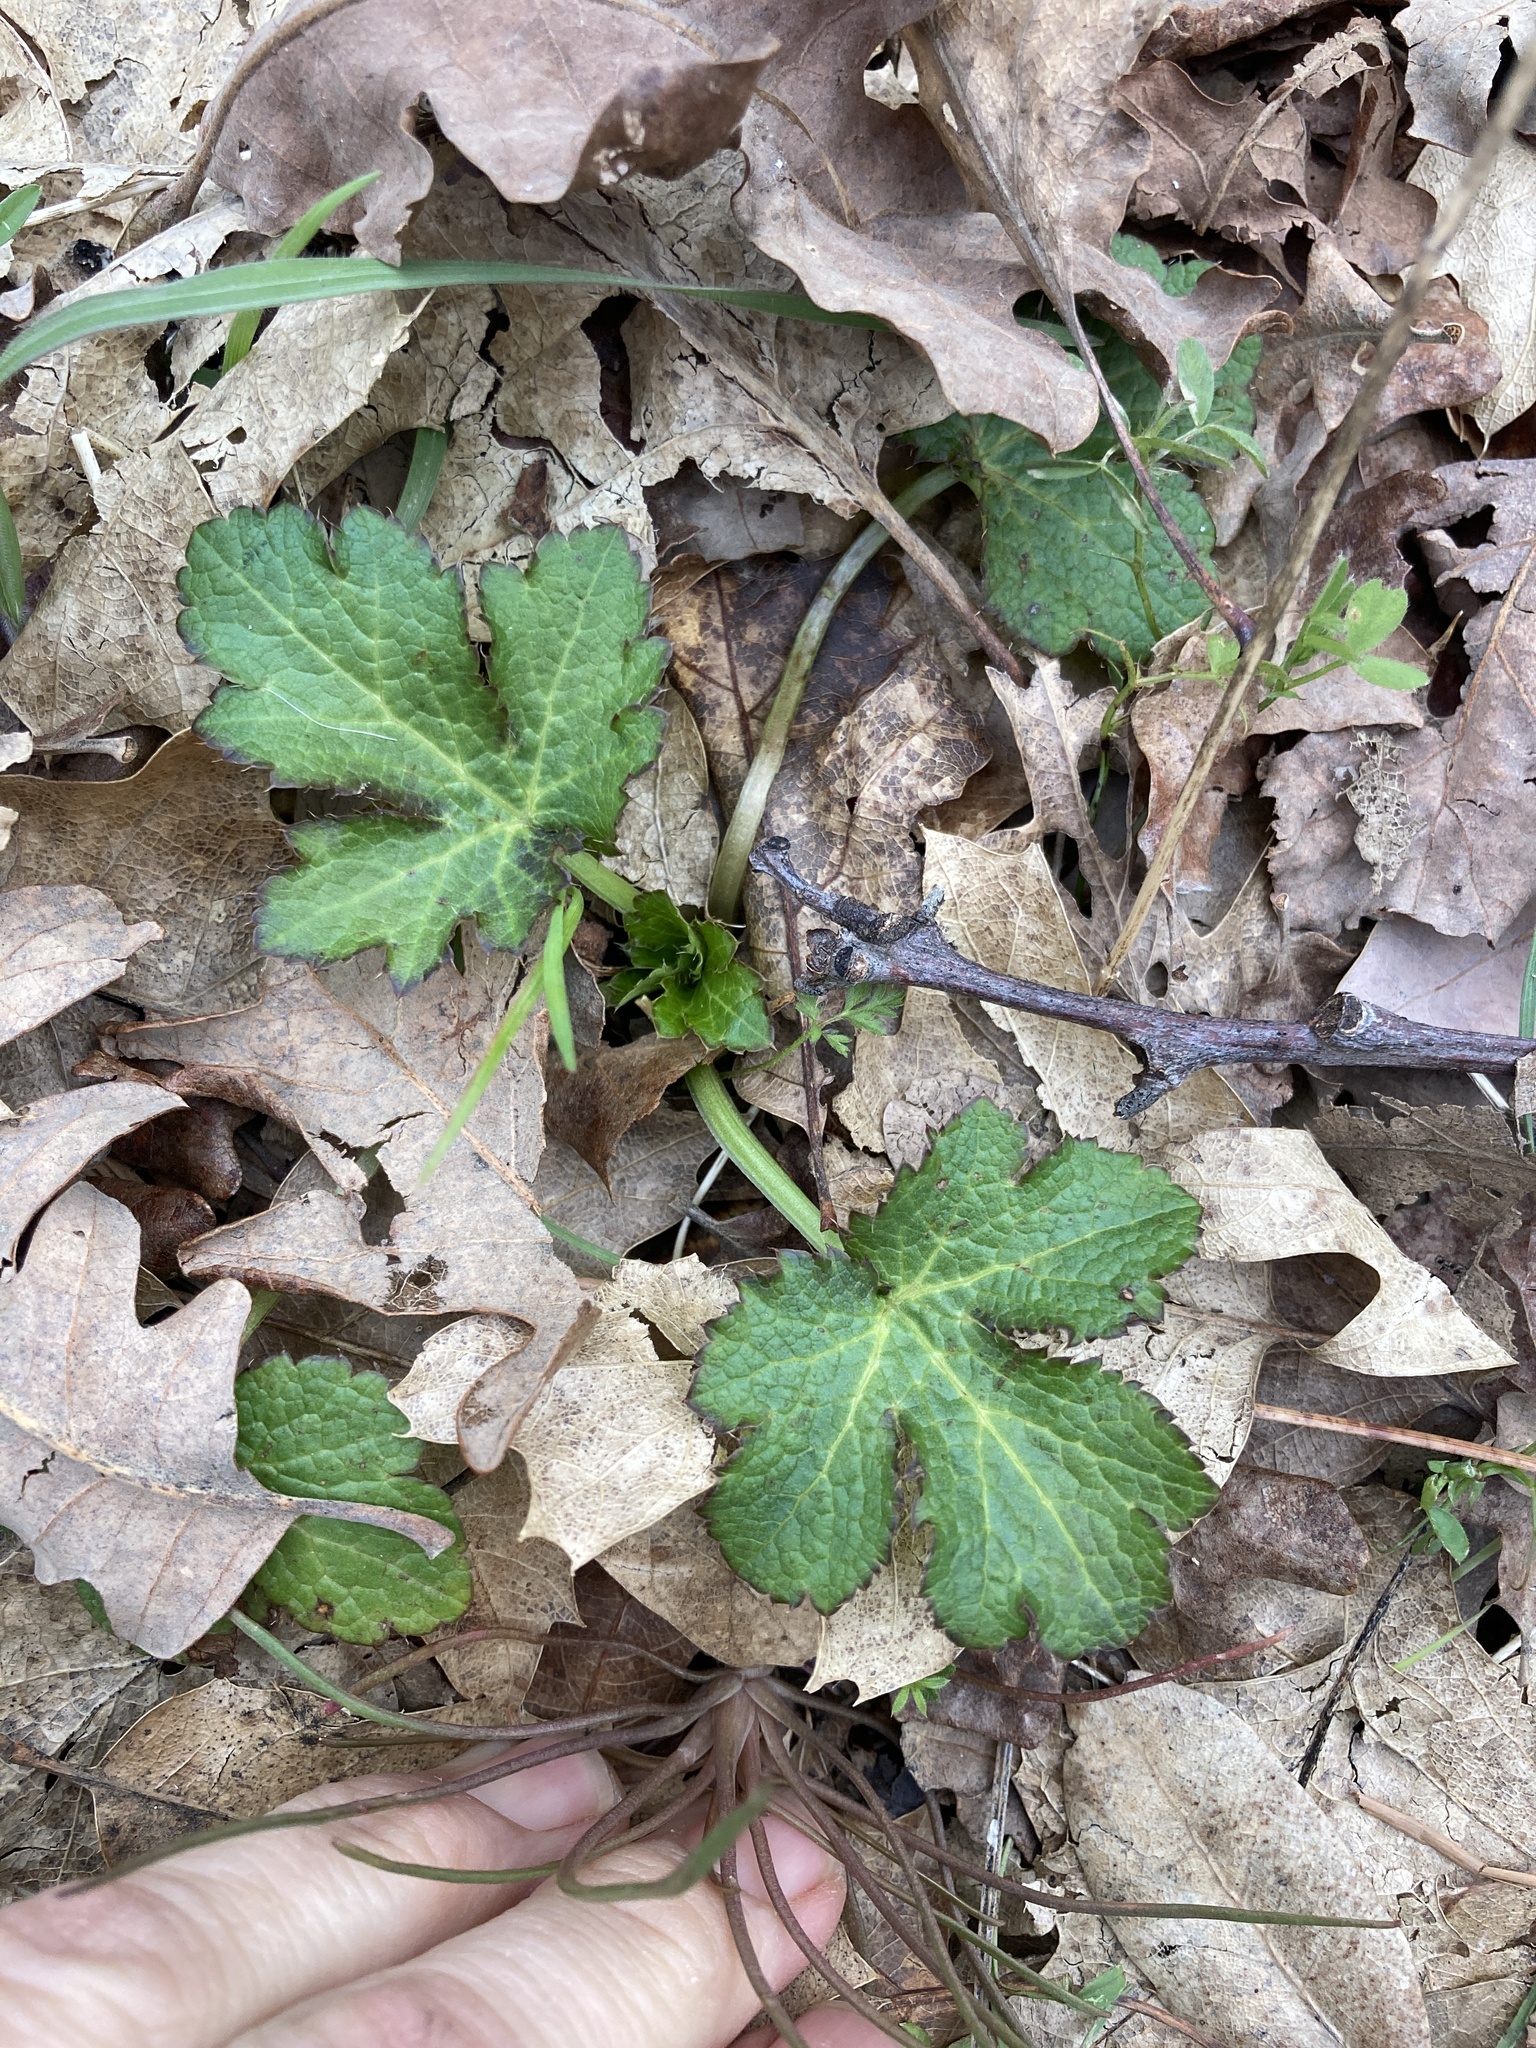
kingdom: Plantae
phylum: Tracheophyta
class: Magnoliopsida
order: Apiales
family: Apiaceae
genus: Sanicula
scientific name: Sanicula crassicaulis
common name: Western snakeroot
